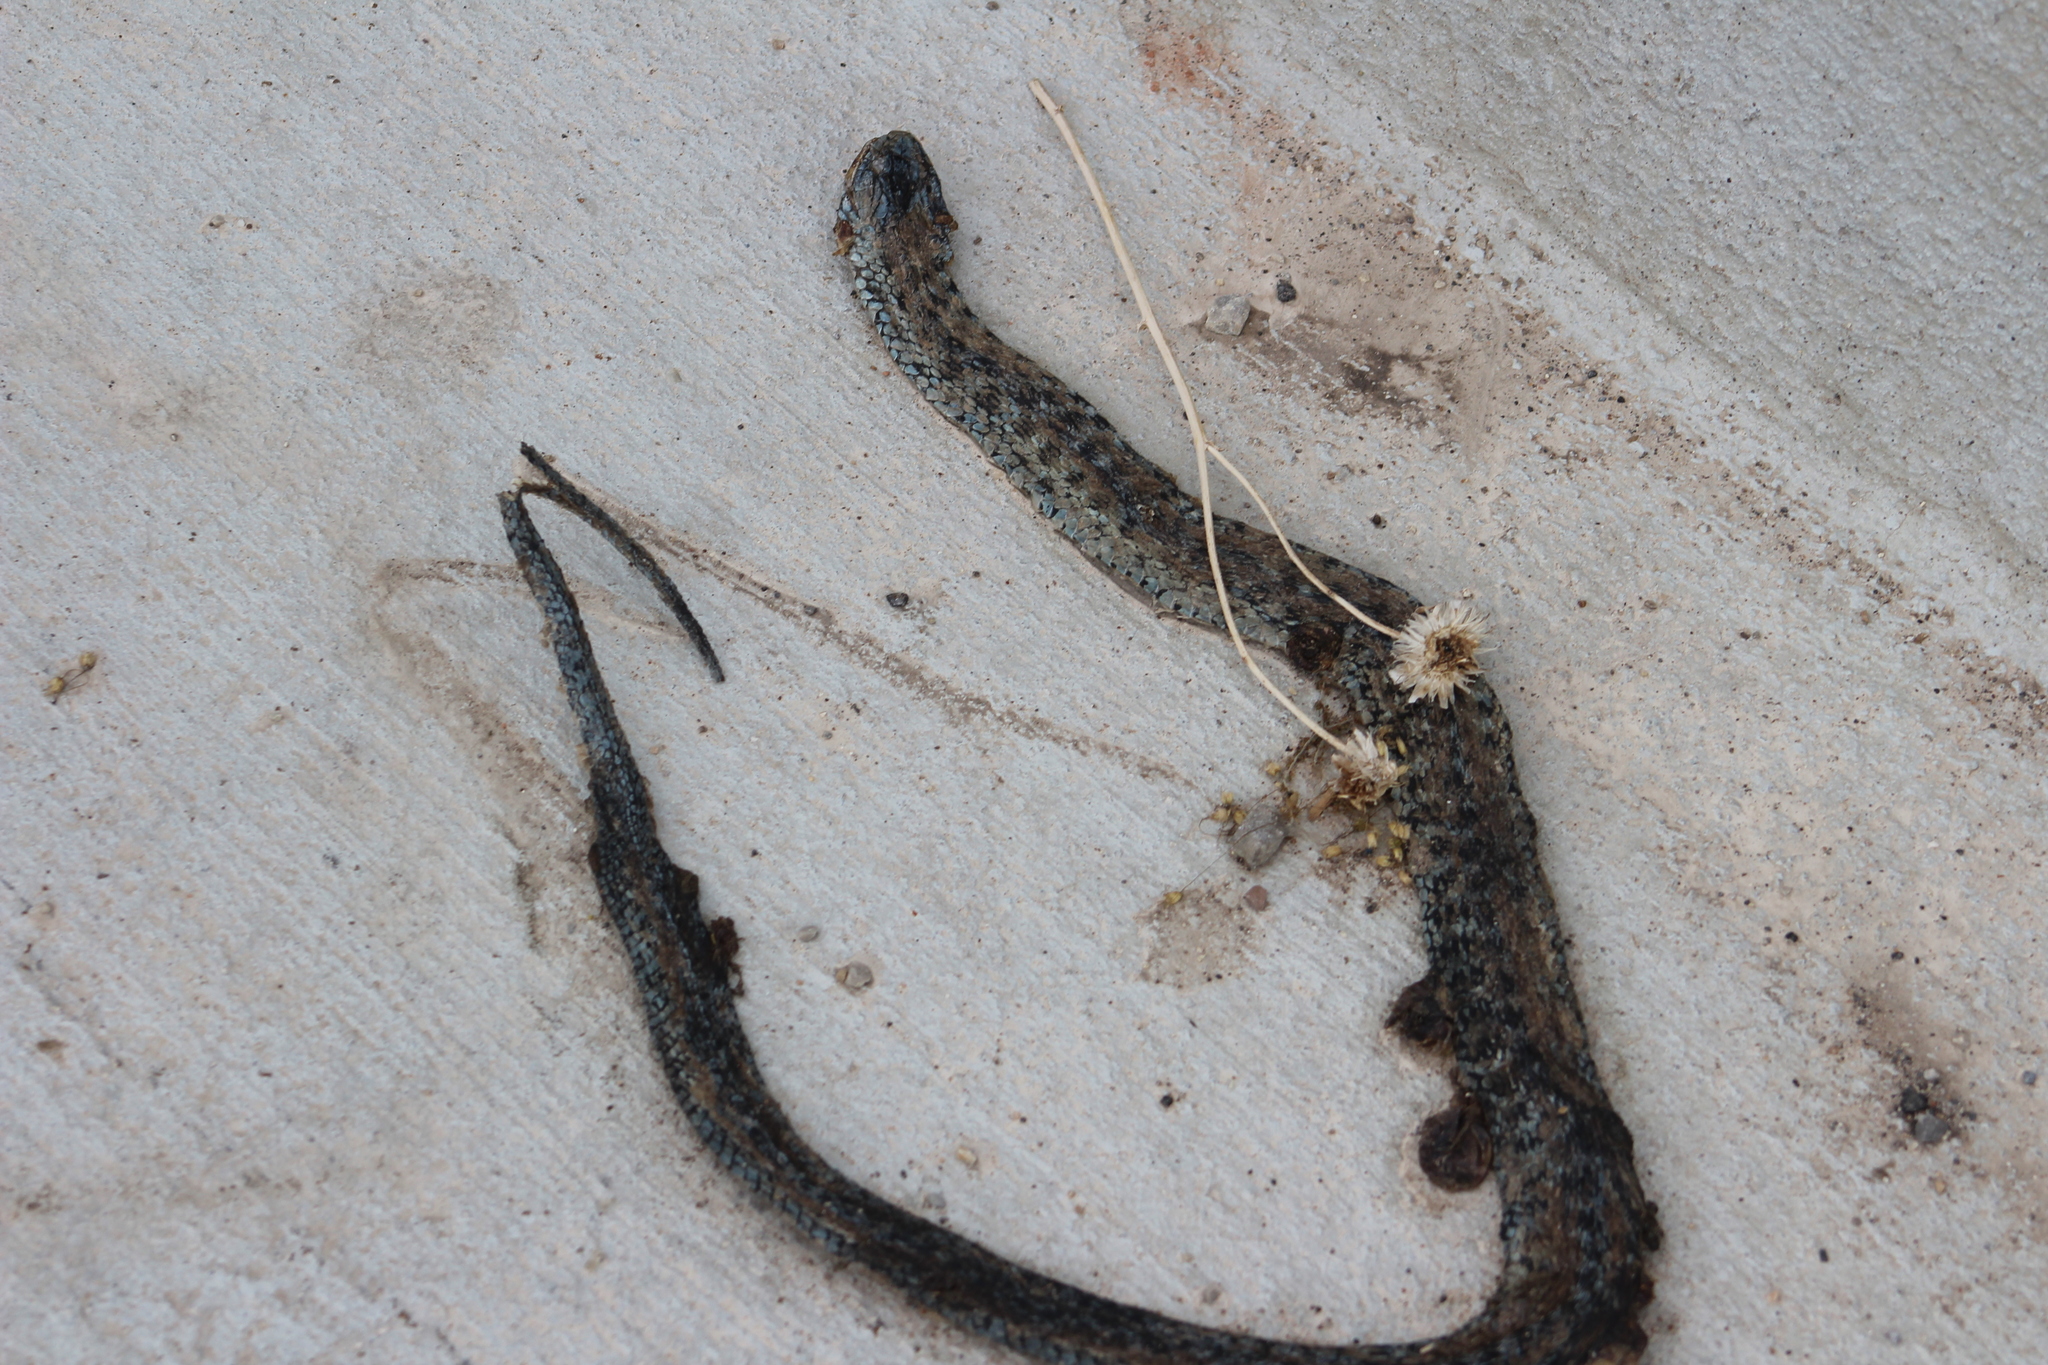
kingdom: Animalia
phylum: Chordata
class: Squamata
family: Colubridae
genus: Thamnophis
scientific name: Thamnophis elegans
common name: Western terrestrial garter snake
